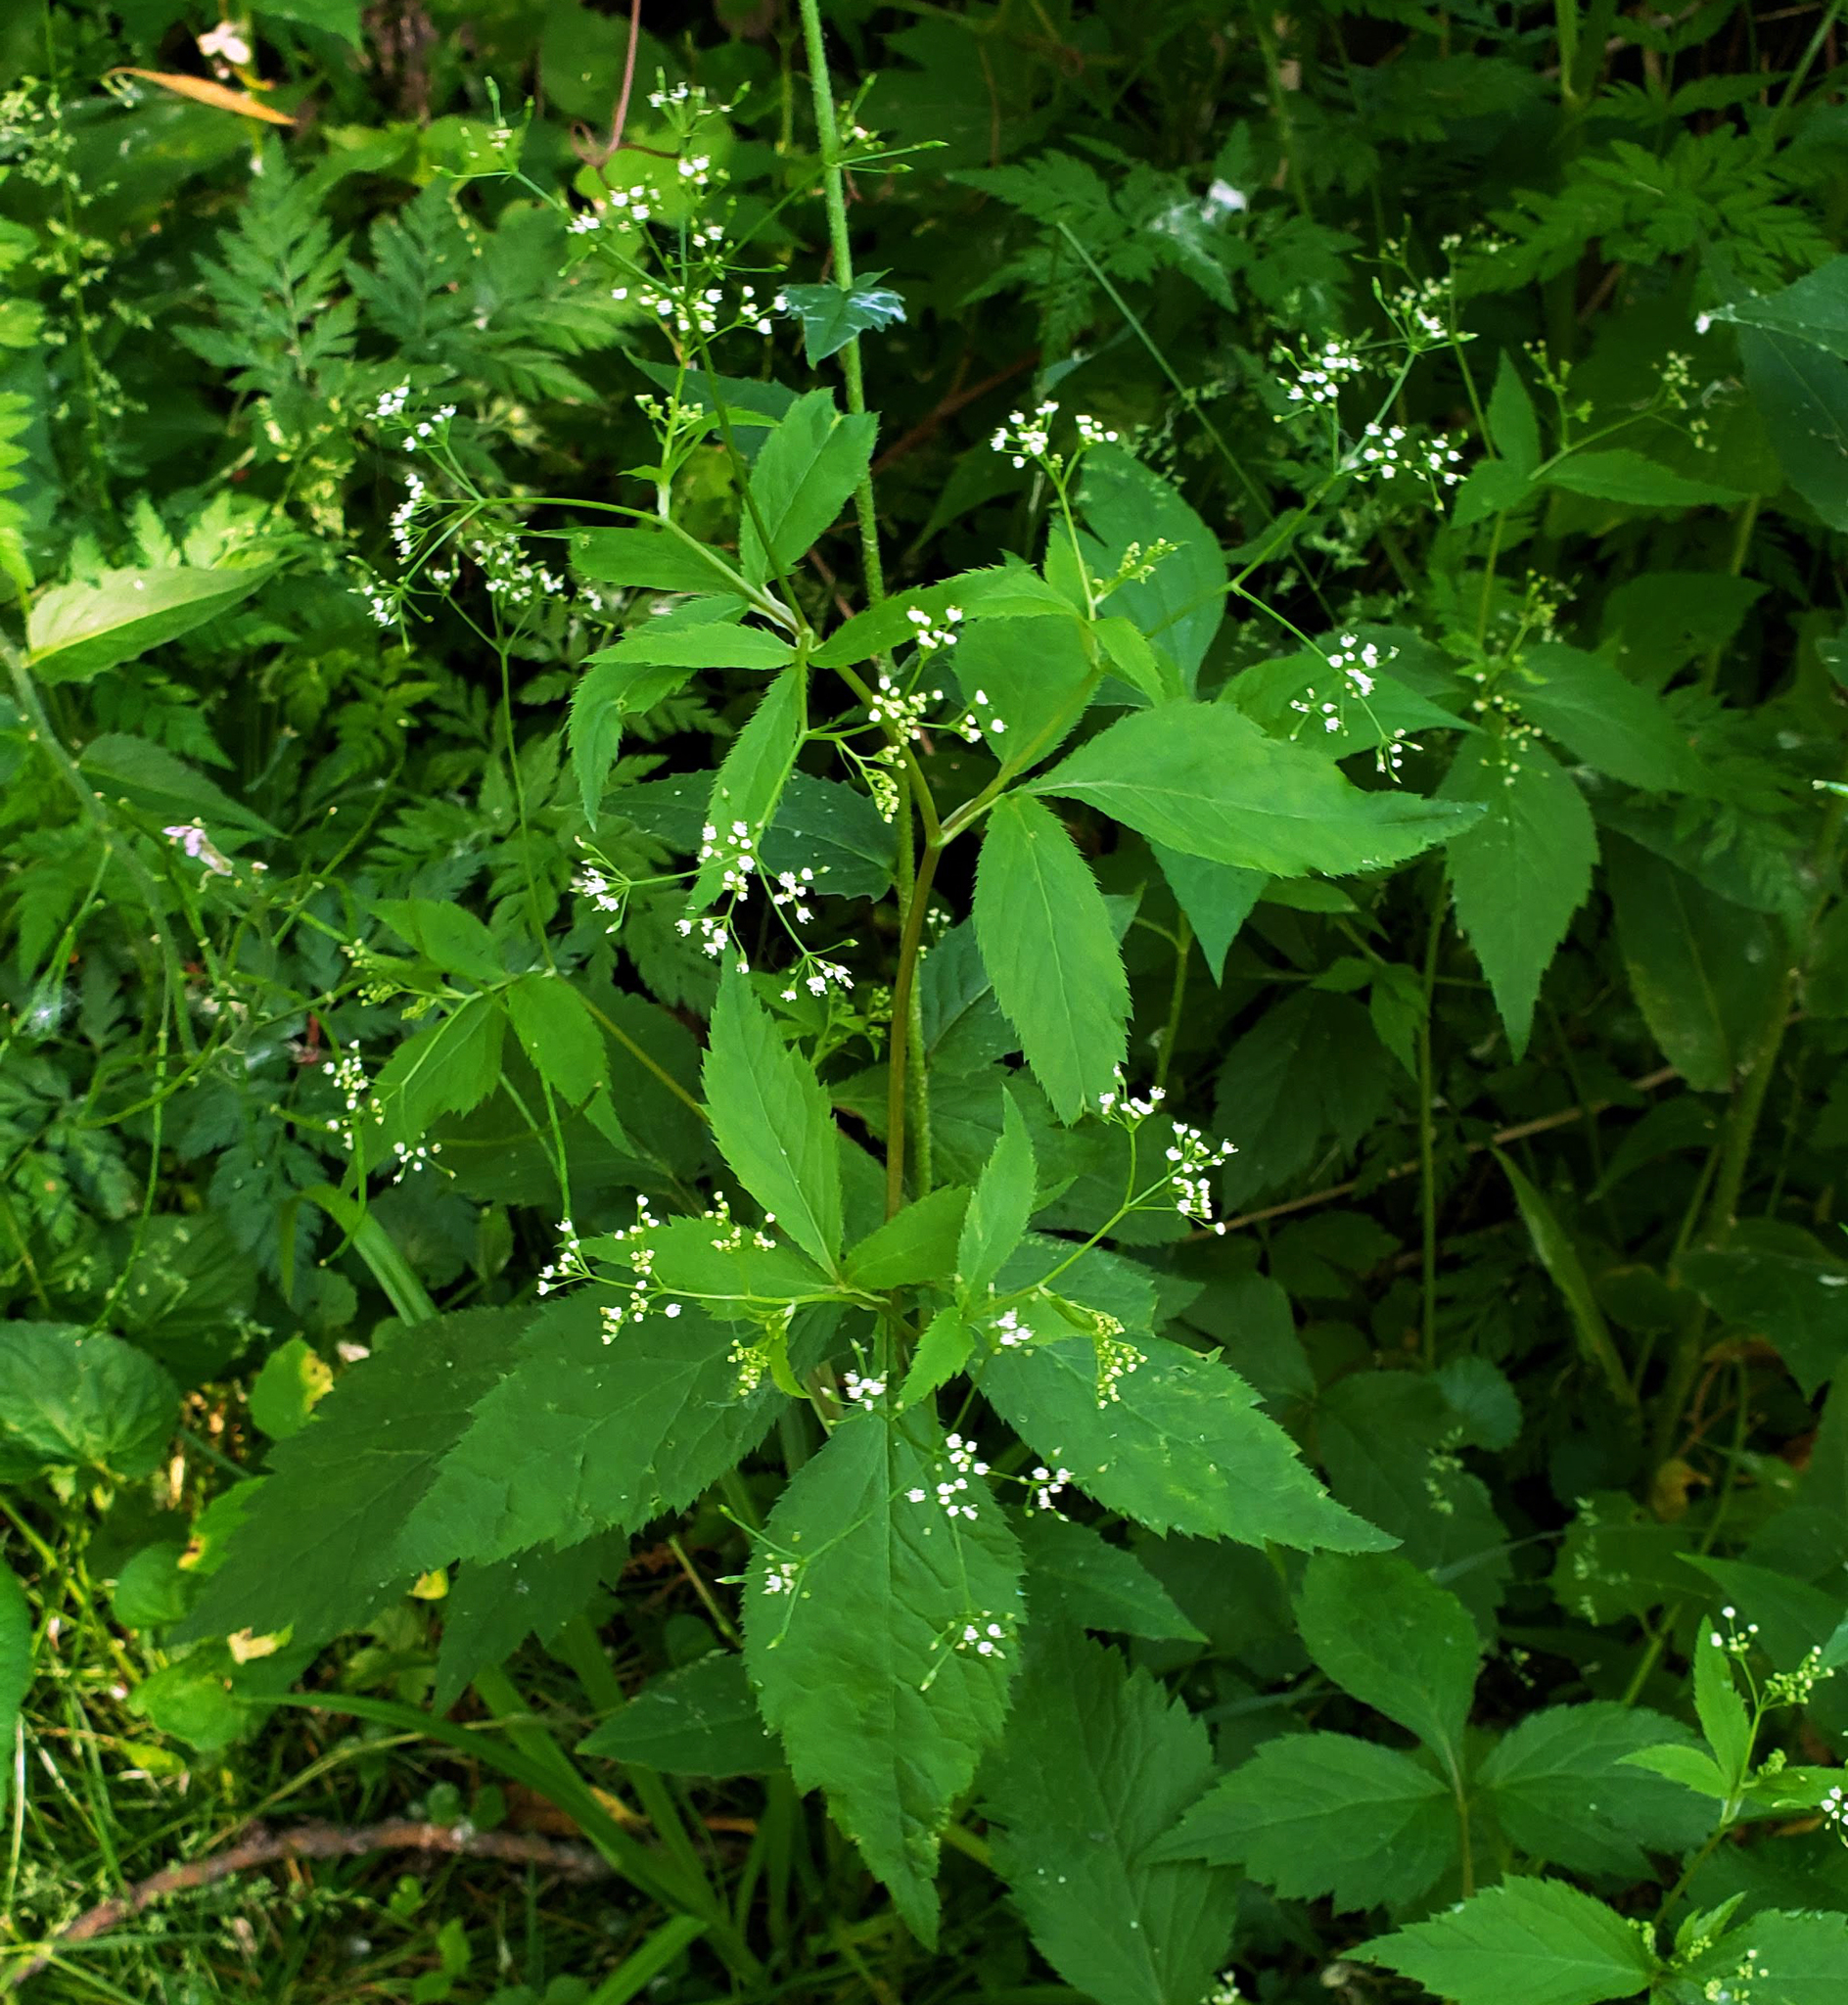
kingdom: Plantae
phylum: Tracheophyta
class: Magnoliopsida
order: Apiales
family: Apiaceae
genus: Cryptotaenia
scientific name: Cryptotaenia canadensis
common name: Honewort
